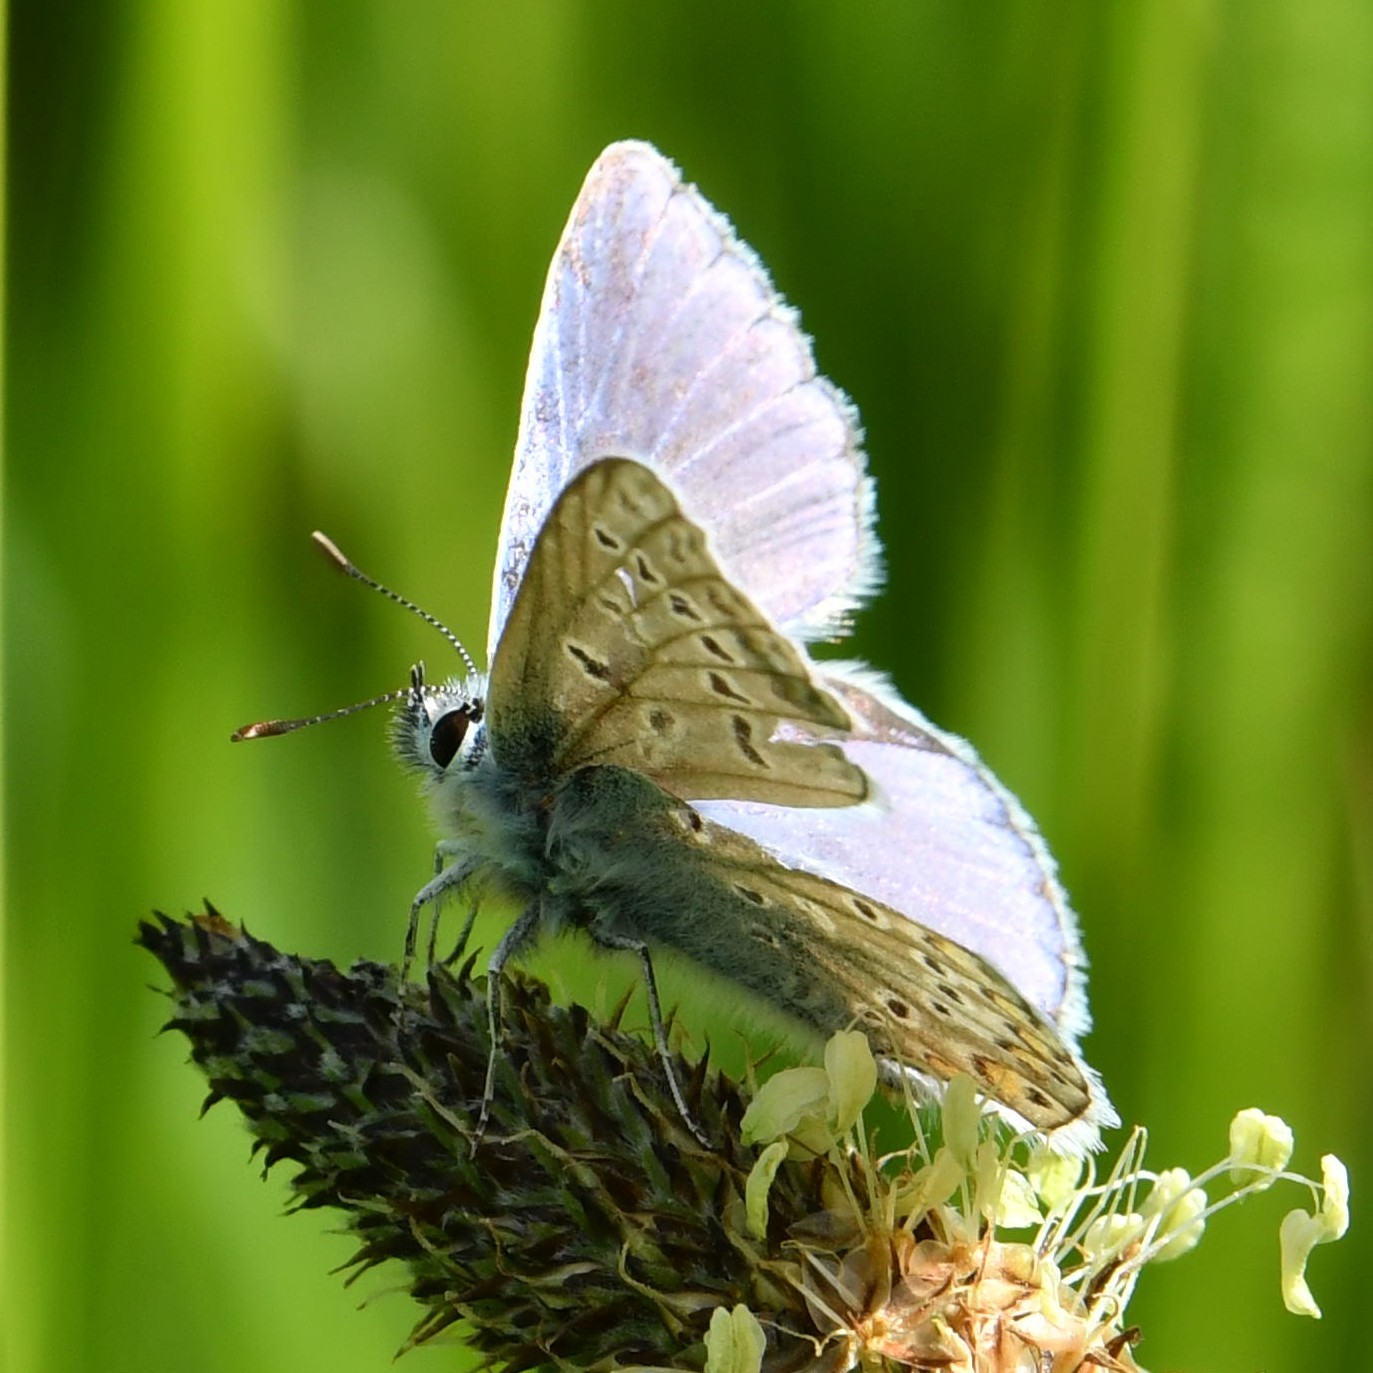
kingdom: Animalia
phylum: Arthropoda
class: Insecta
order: Lepidoptera
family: Lycaenidae
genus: Polyommatus
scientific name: Polyommatus icarus
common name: Common blue
